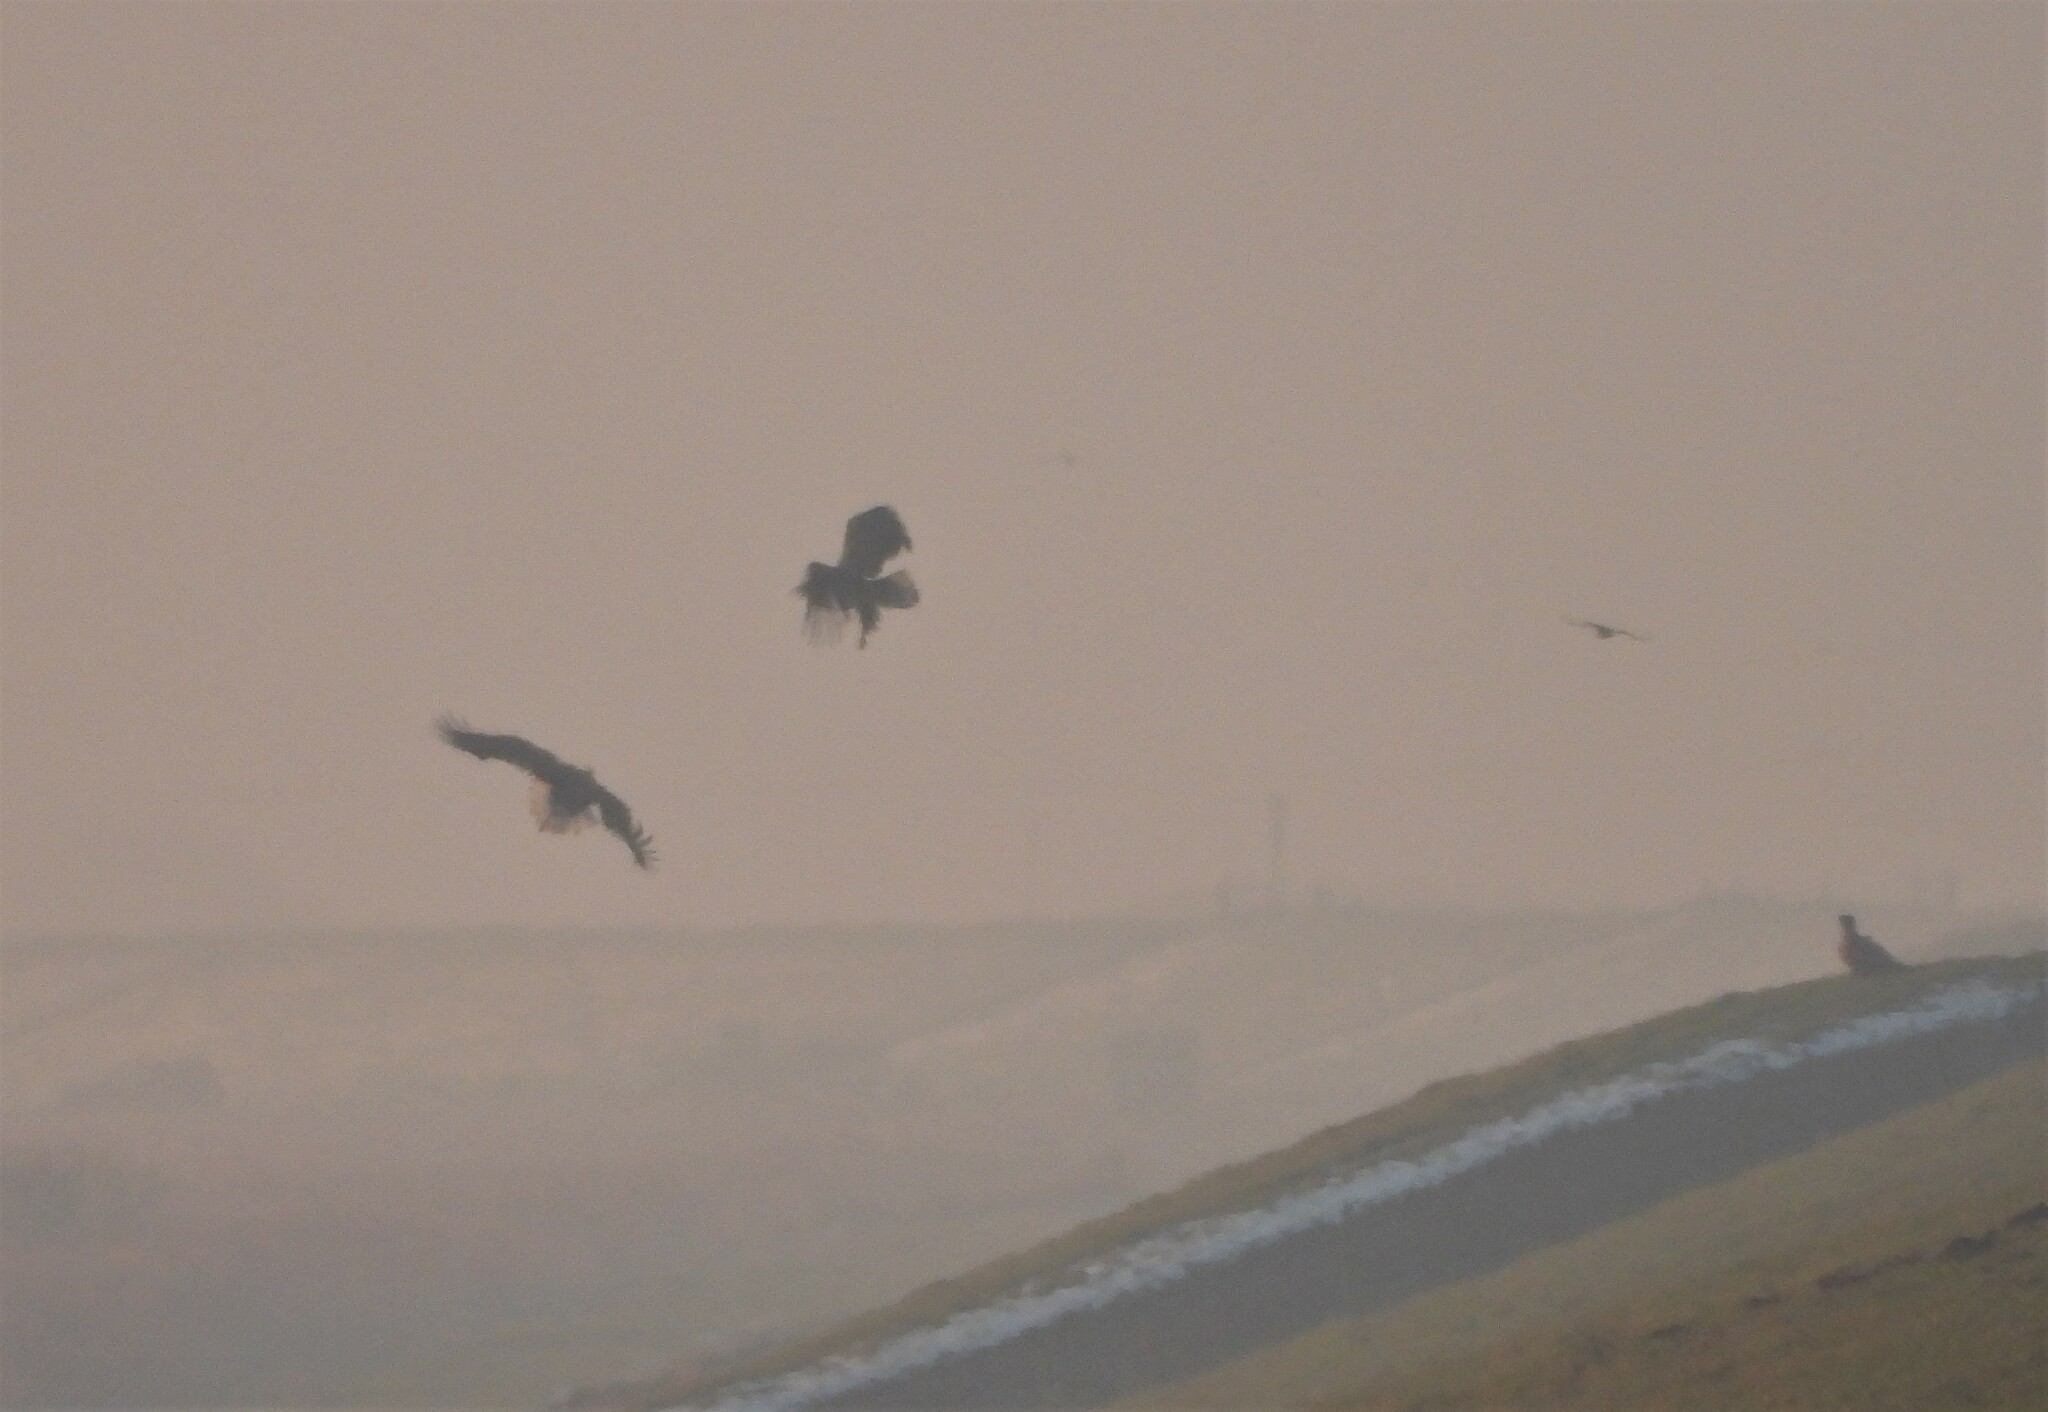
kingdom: Animalia
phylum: Chordata
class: Aves
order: Accipitriformes
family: Accipitridae
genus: Haliaeetus
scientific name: Haliaeetus albicilla
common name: White-tailed eagle
